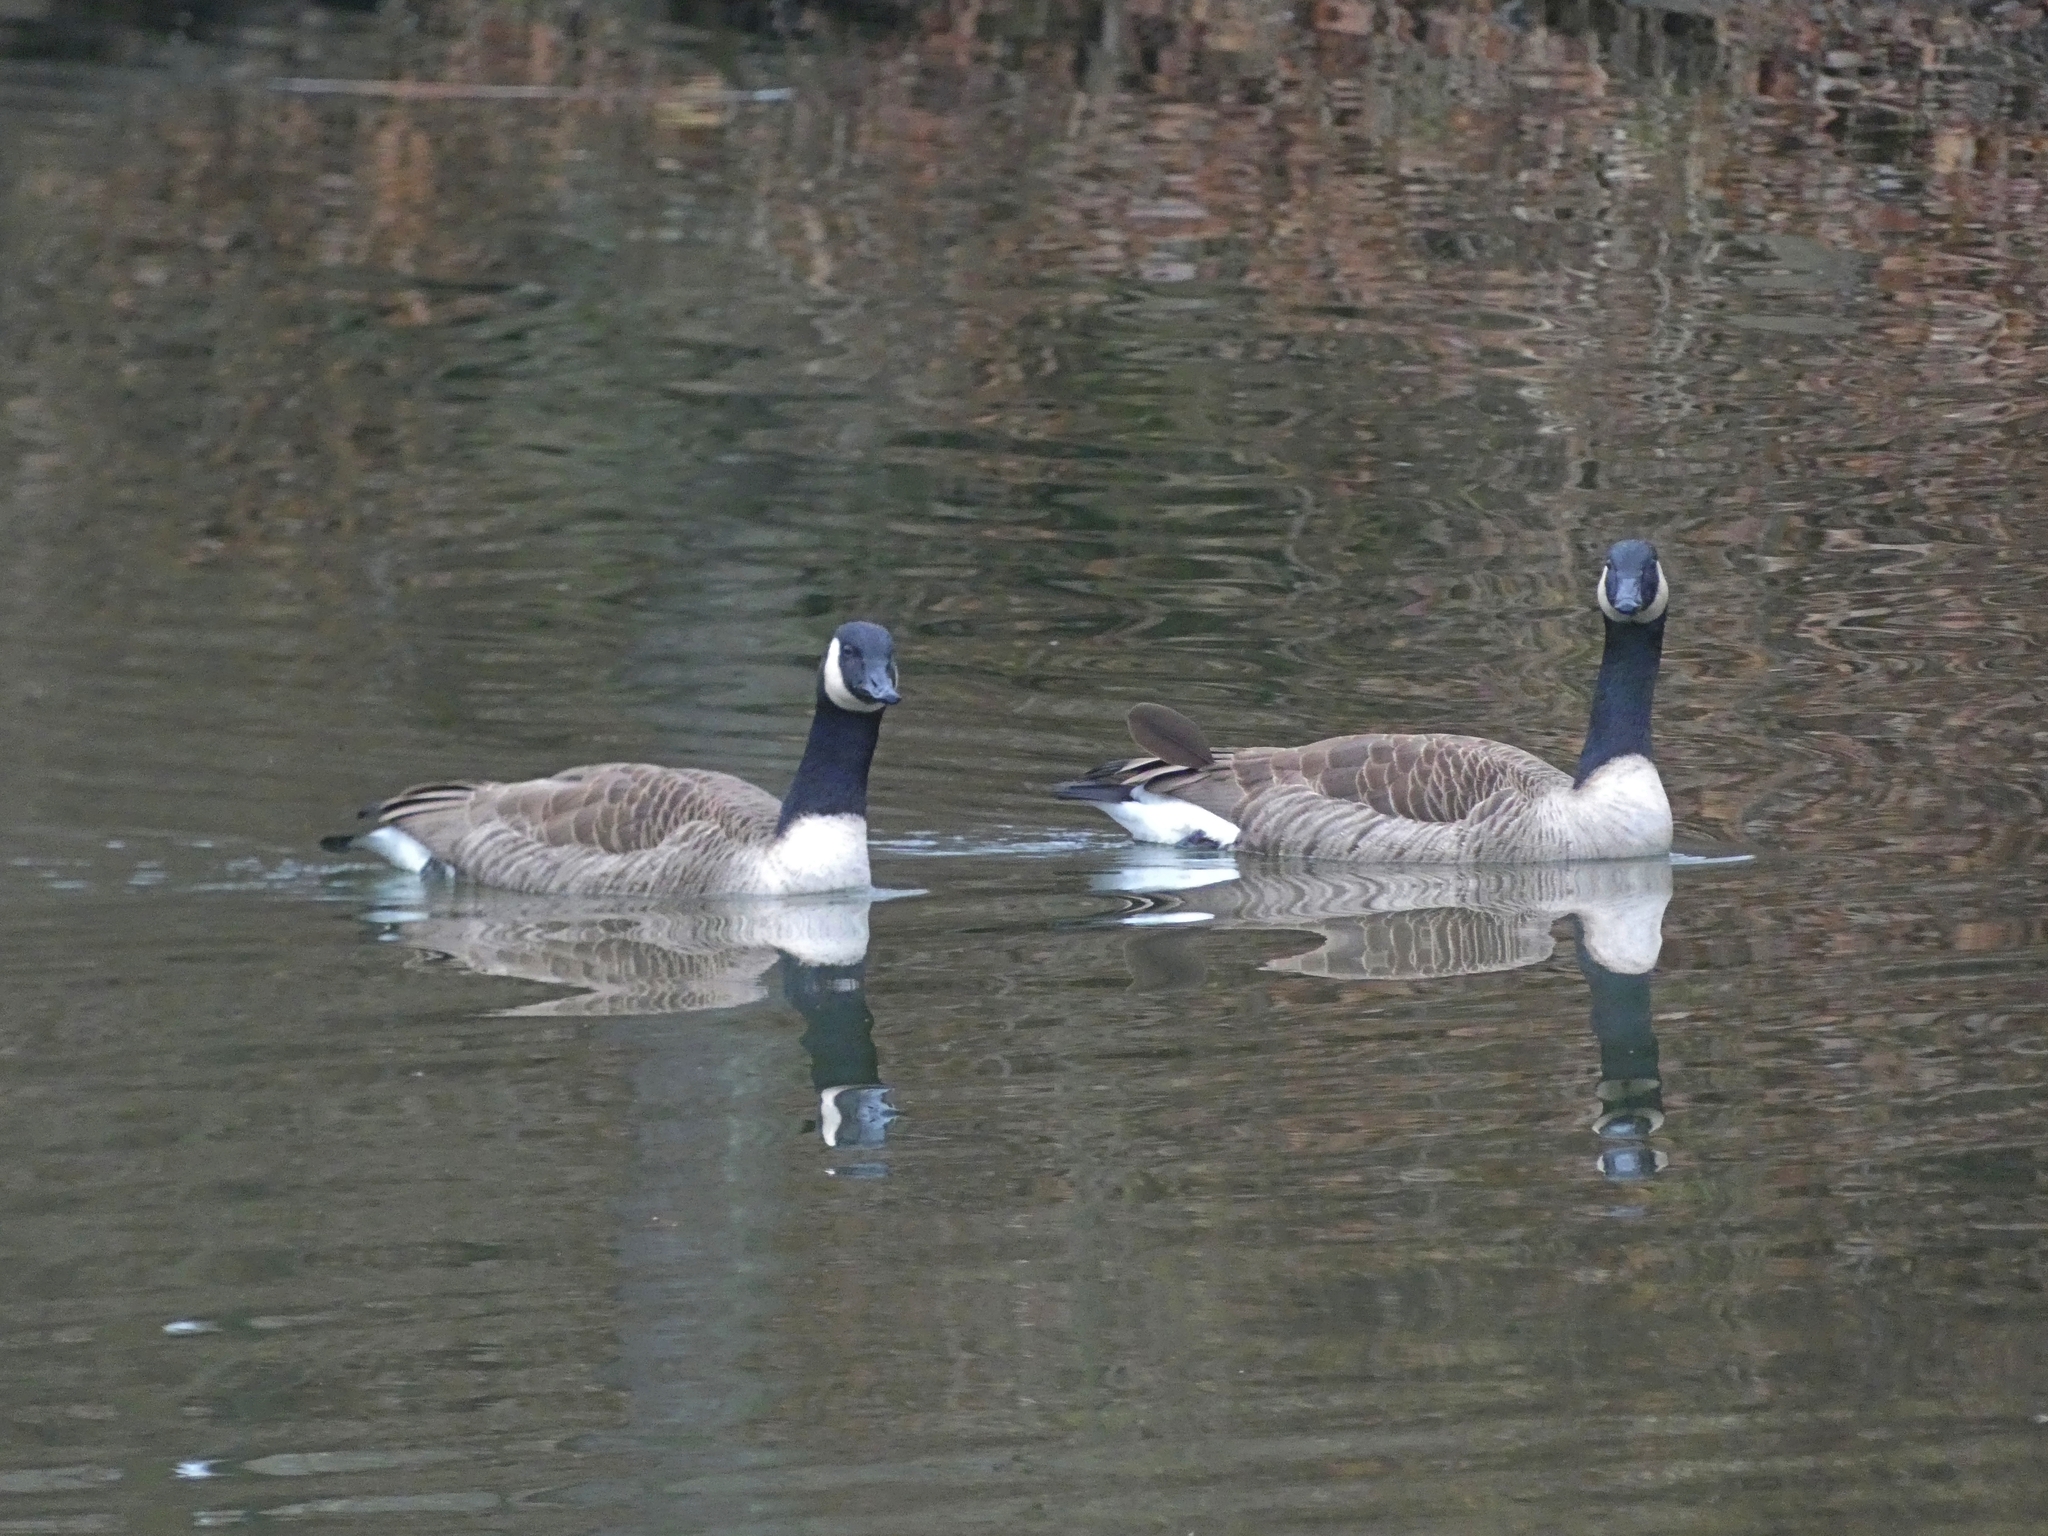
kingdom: Animalia
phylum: Chordata
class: Aves
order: Anseriformes
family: Anatidae
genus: Branta
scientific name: Branta canadensis
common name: Canada goose
